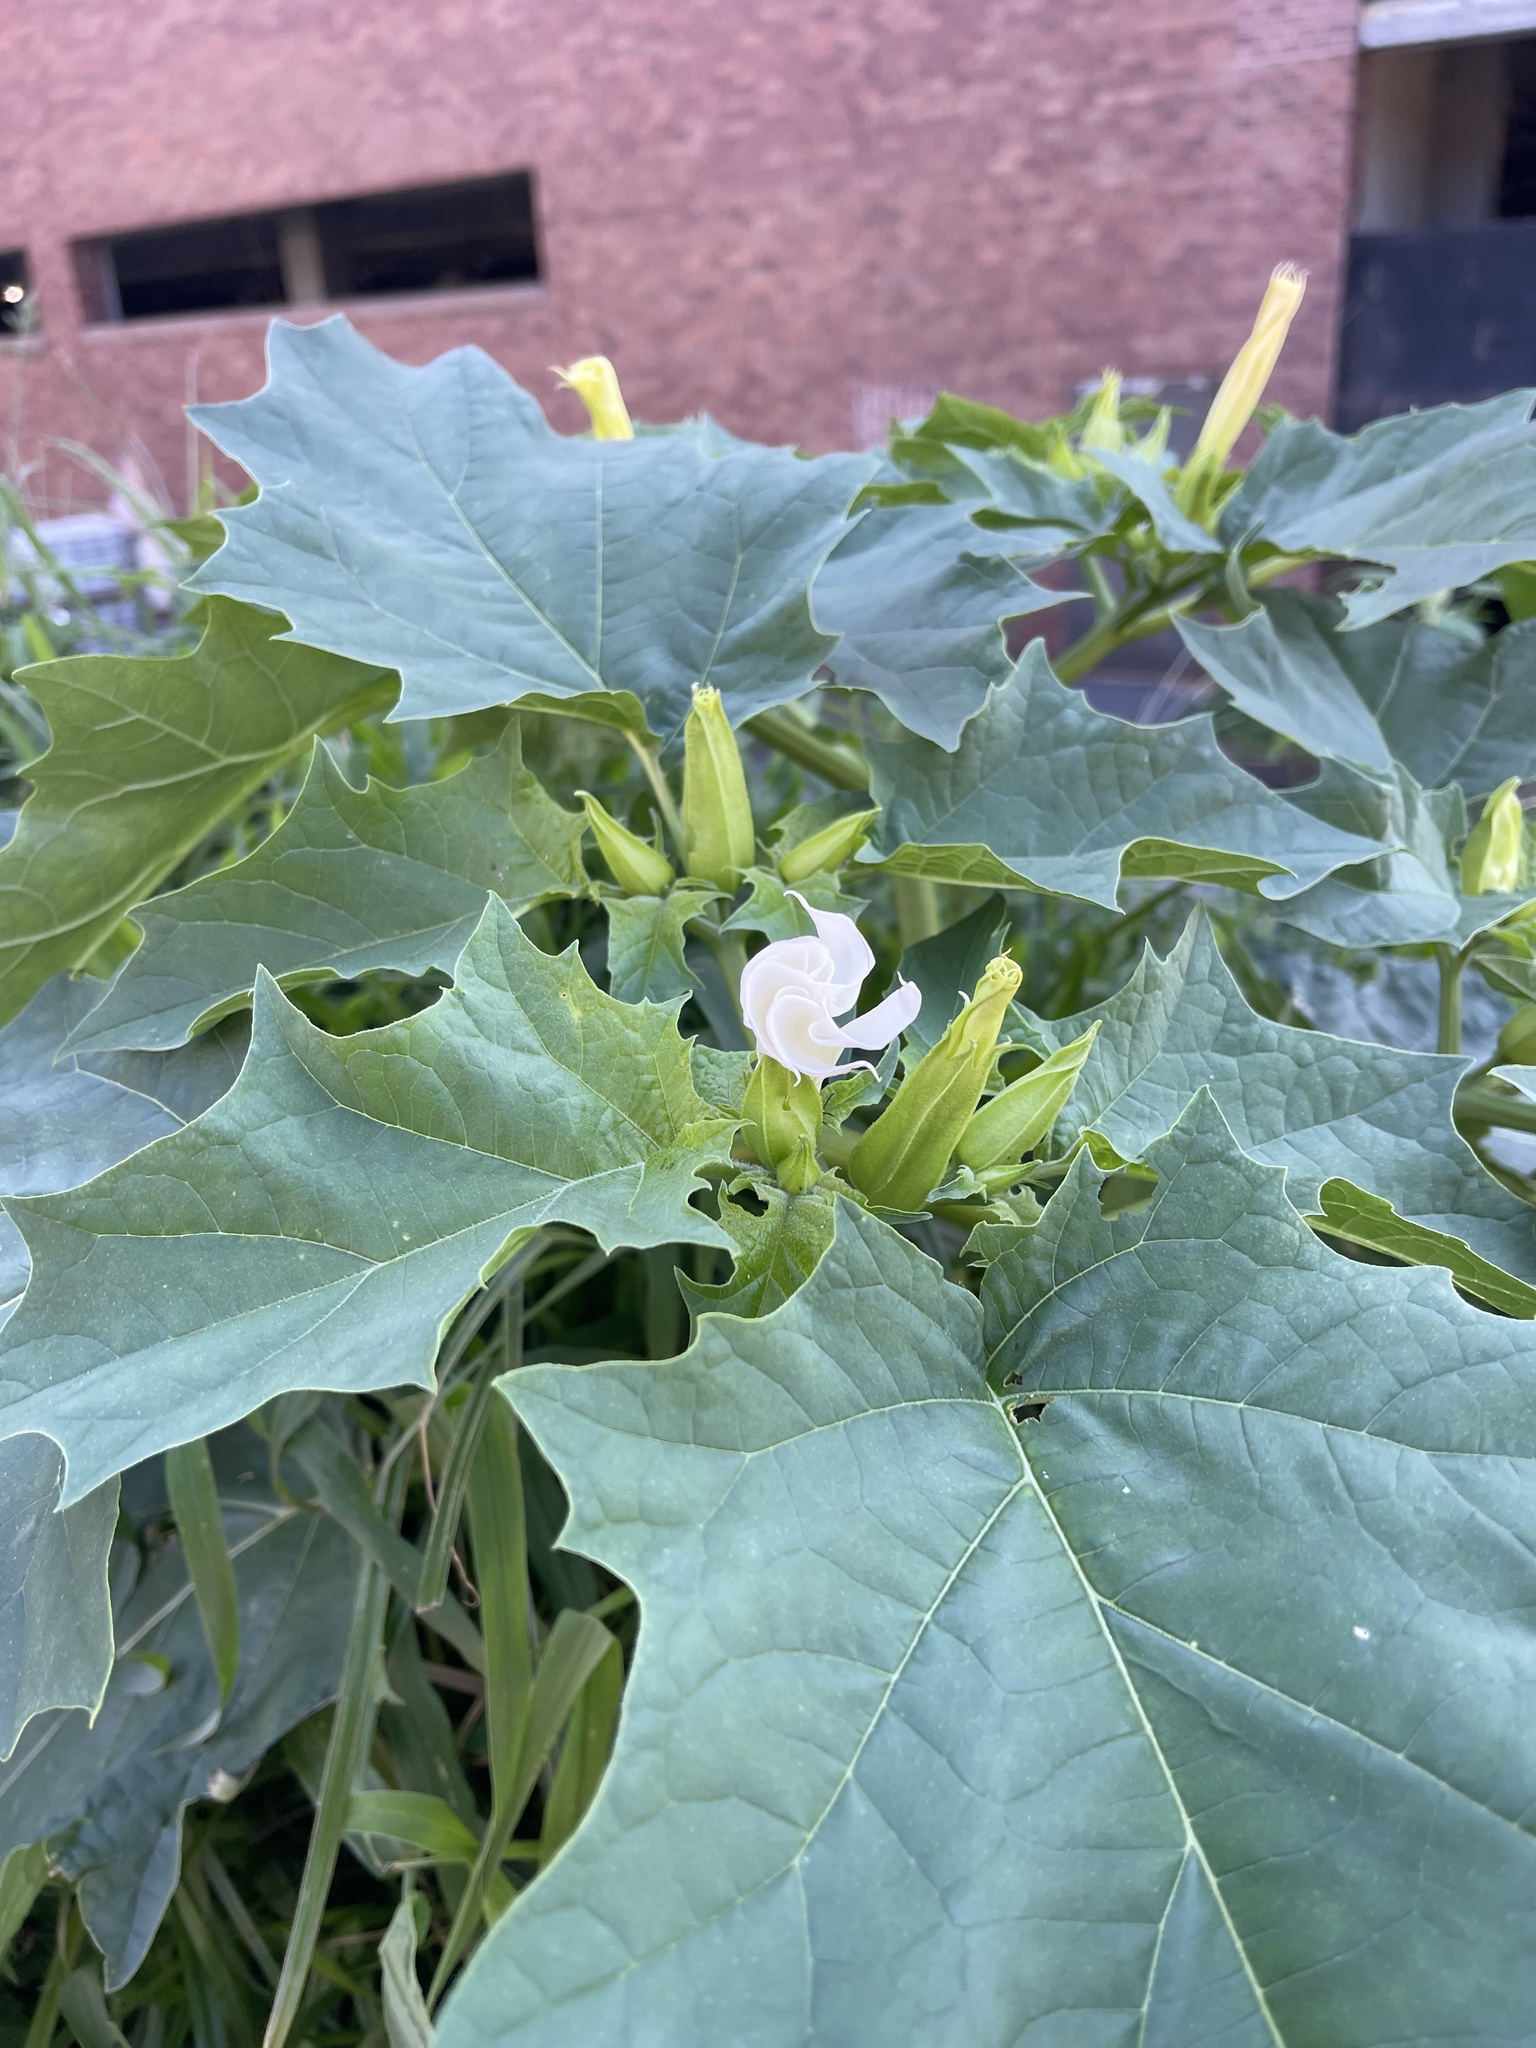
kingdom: Plantae
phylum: Tracheophyta
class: Magnoliopsida
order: Solanales
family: Solanaceae
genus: Datura
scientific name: Datura stramonium
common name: Thorn-apple
